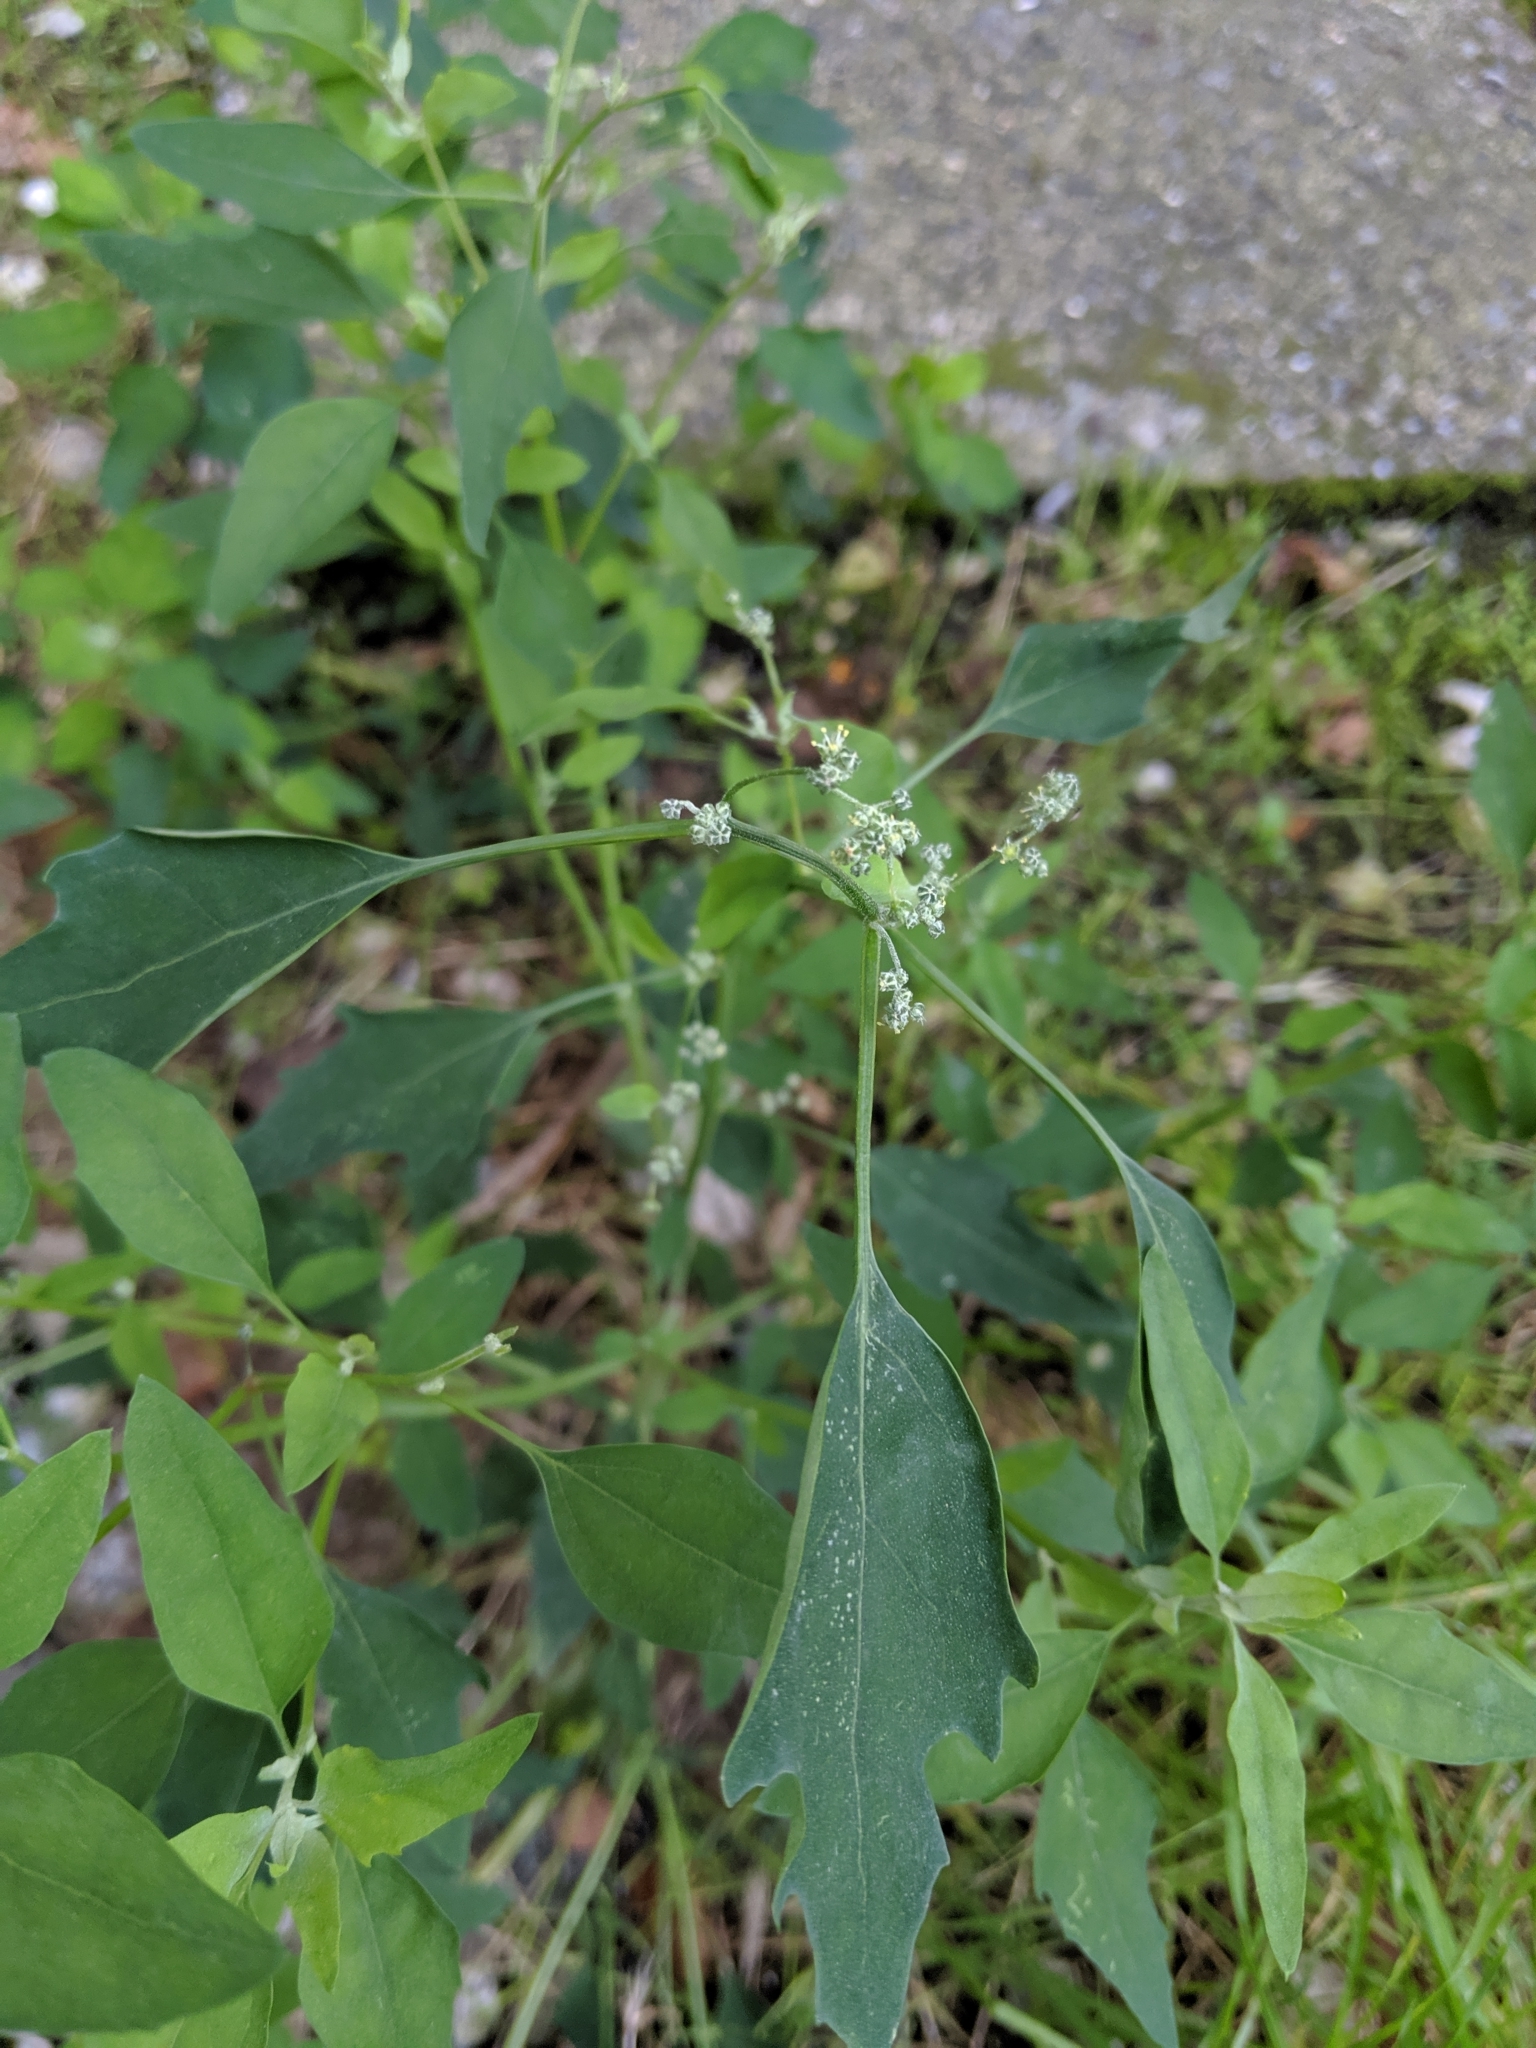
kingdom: Plantae
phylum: Tracheophyta
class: Magnoliopsida
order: Caryophyllales
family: Amaranthaceae
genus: Chenopodium
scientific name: Chenopodium album
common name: Fat-hen
